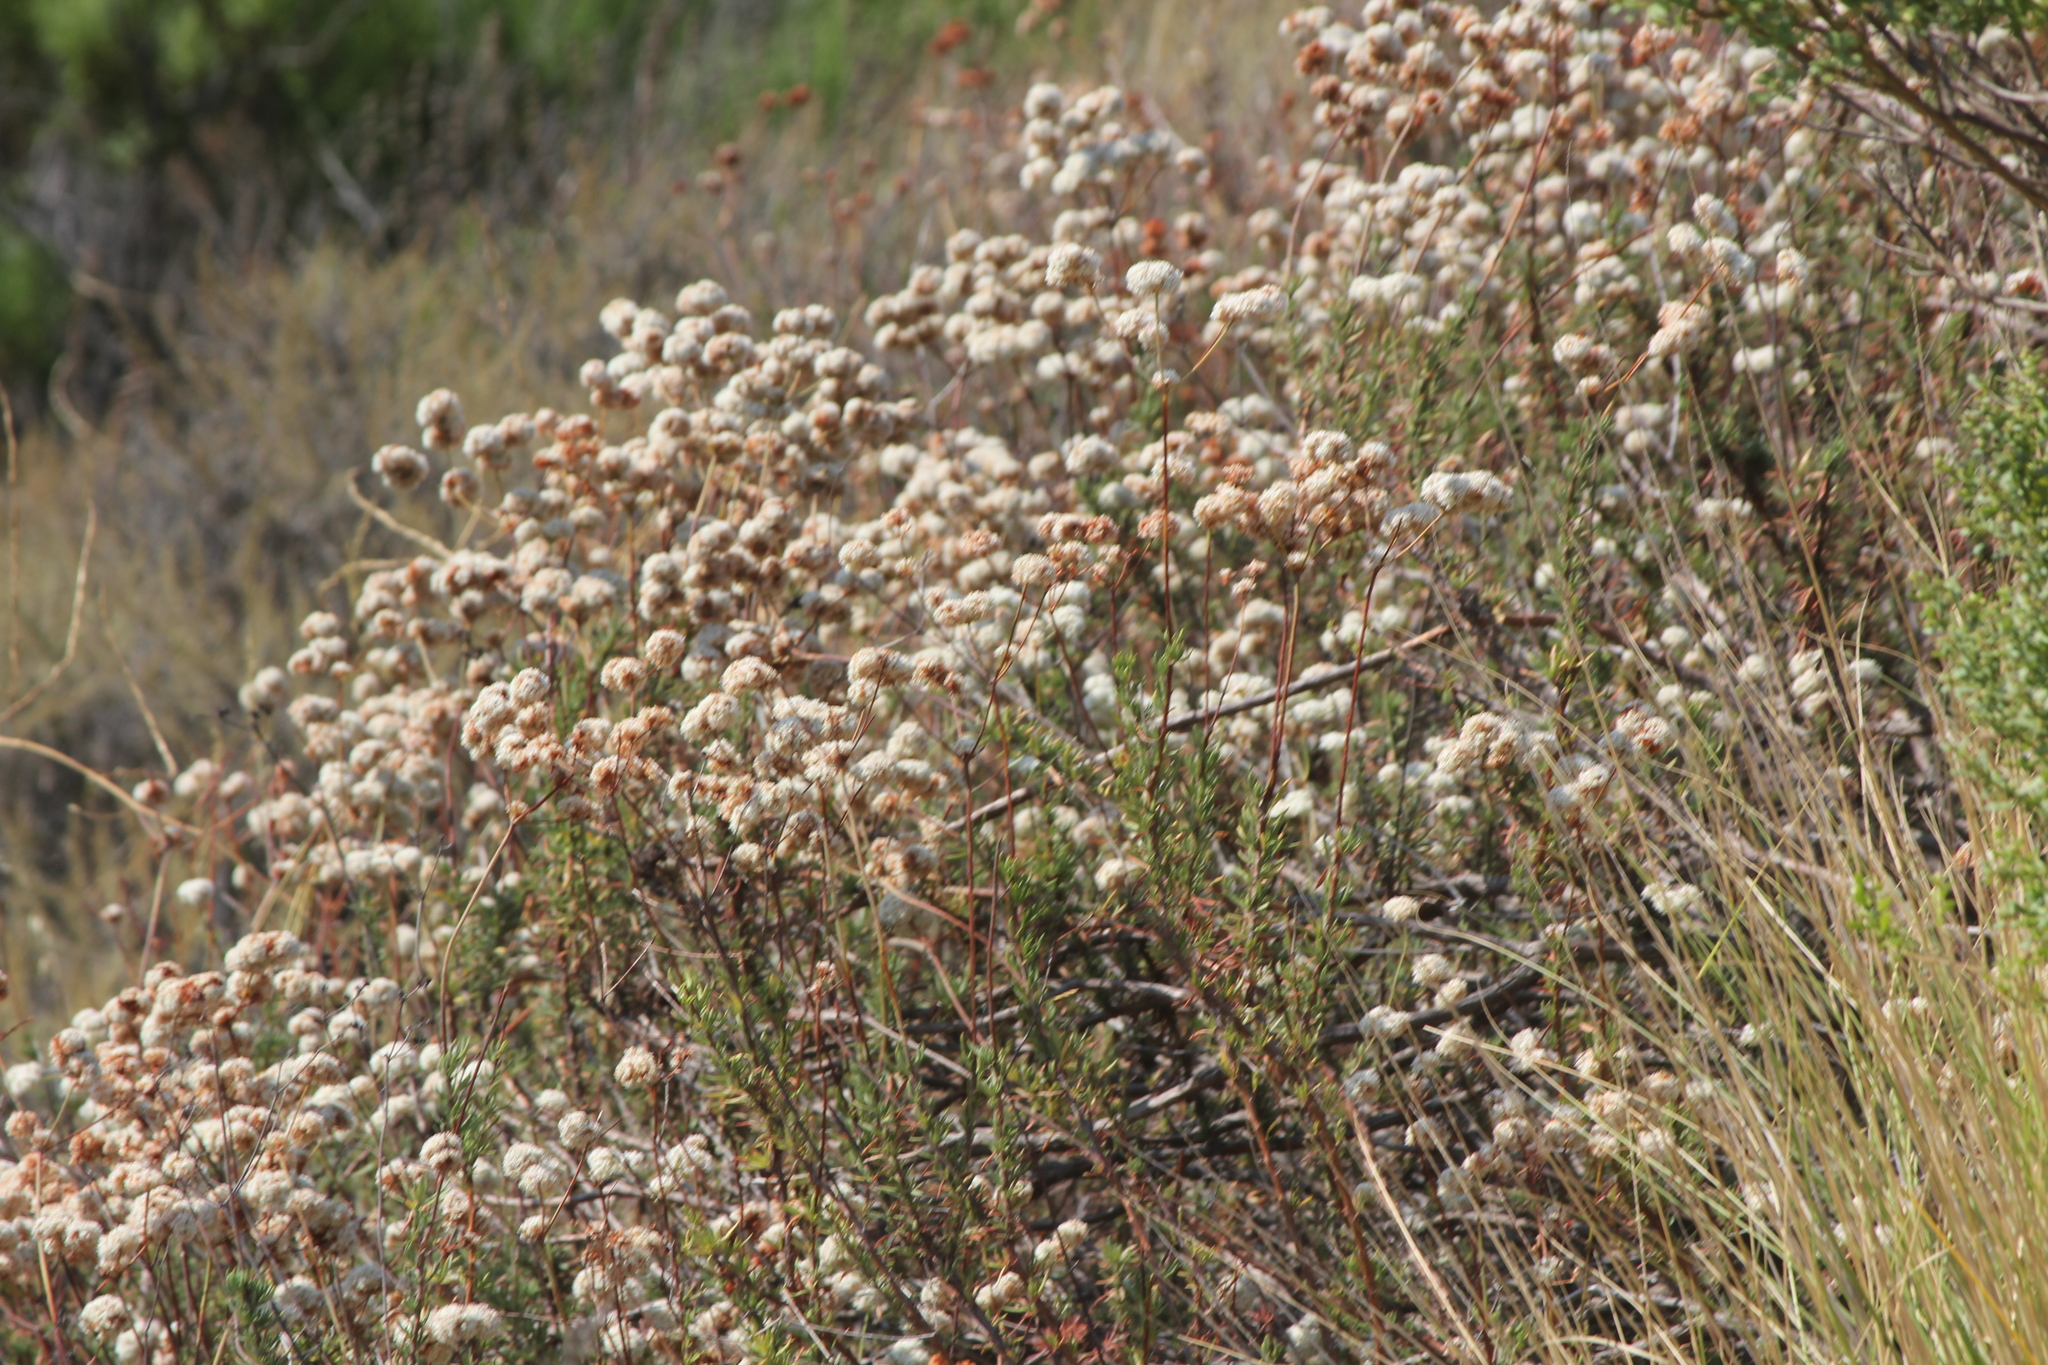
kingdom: Plantae
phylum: Tracheophyta
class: Magnoliopsida
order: Caryophyllales
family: Polygonaceae
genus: Eriogonum
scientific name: Eriogonum fasciculatum
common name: California wild buckwheat
